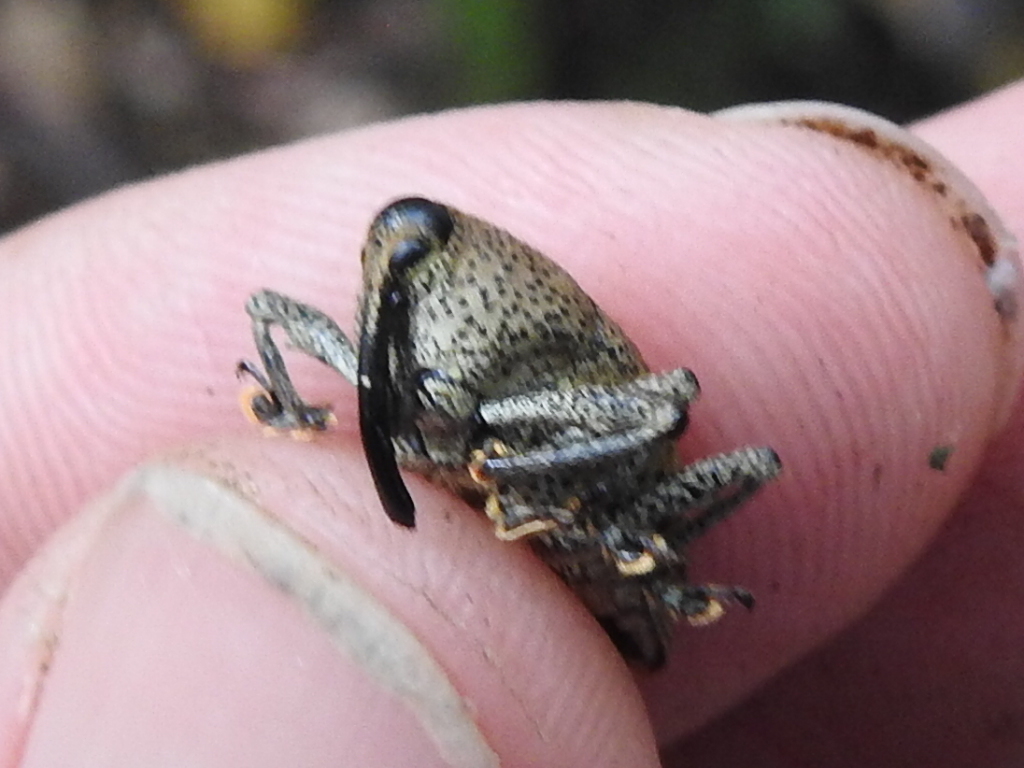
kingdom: Animalia
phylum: Arthropoda
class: Insecta
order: Coleoptera
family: Curculionidae
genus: Cholus
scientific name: Cholus pilicauda
